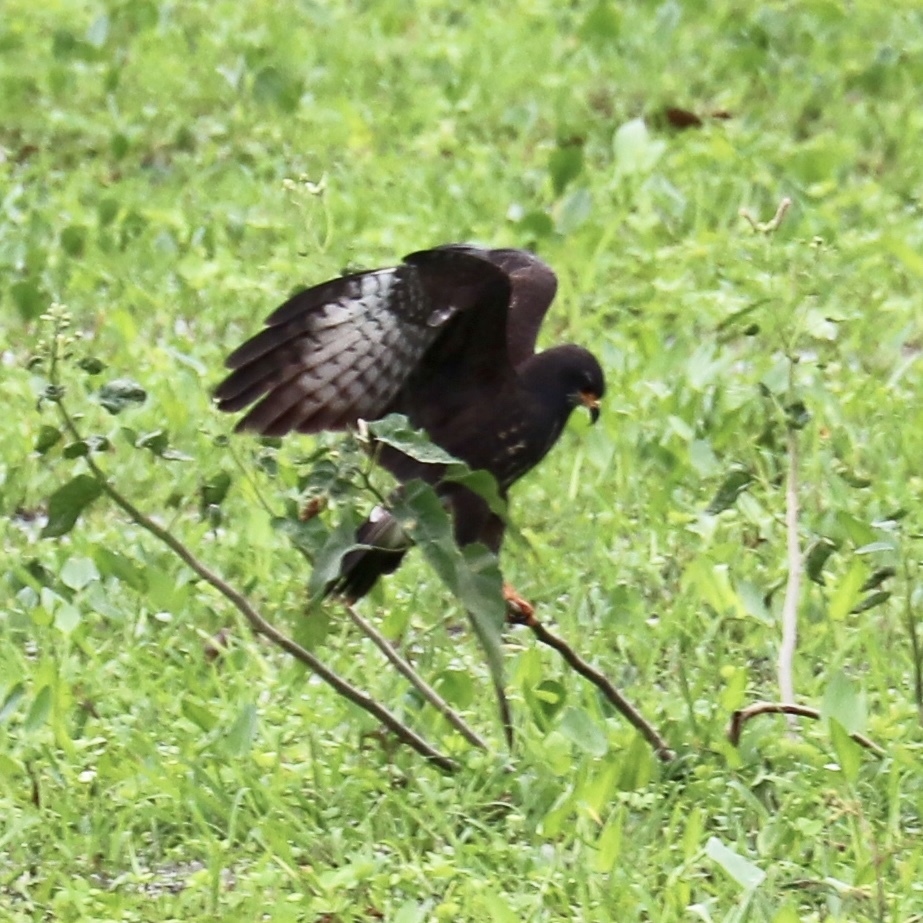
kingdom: Animalia
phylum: Chordata
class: Aves
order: Accipitriformes
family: Accipitridae
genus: Rostrhamus
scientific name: Rostrhamus sociabilis
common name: Snail kite
